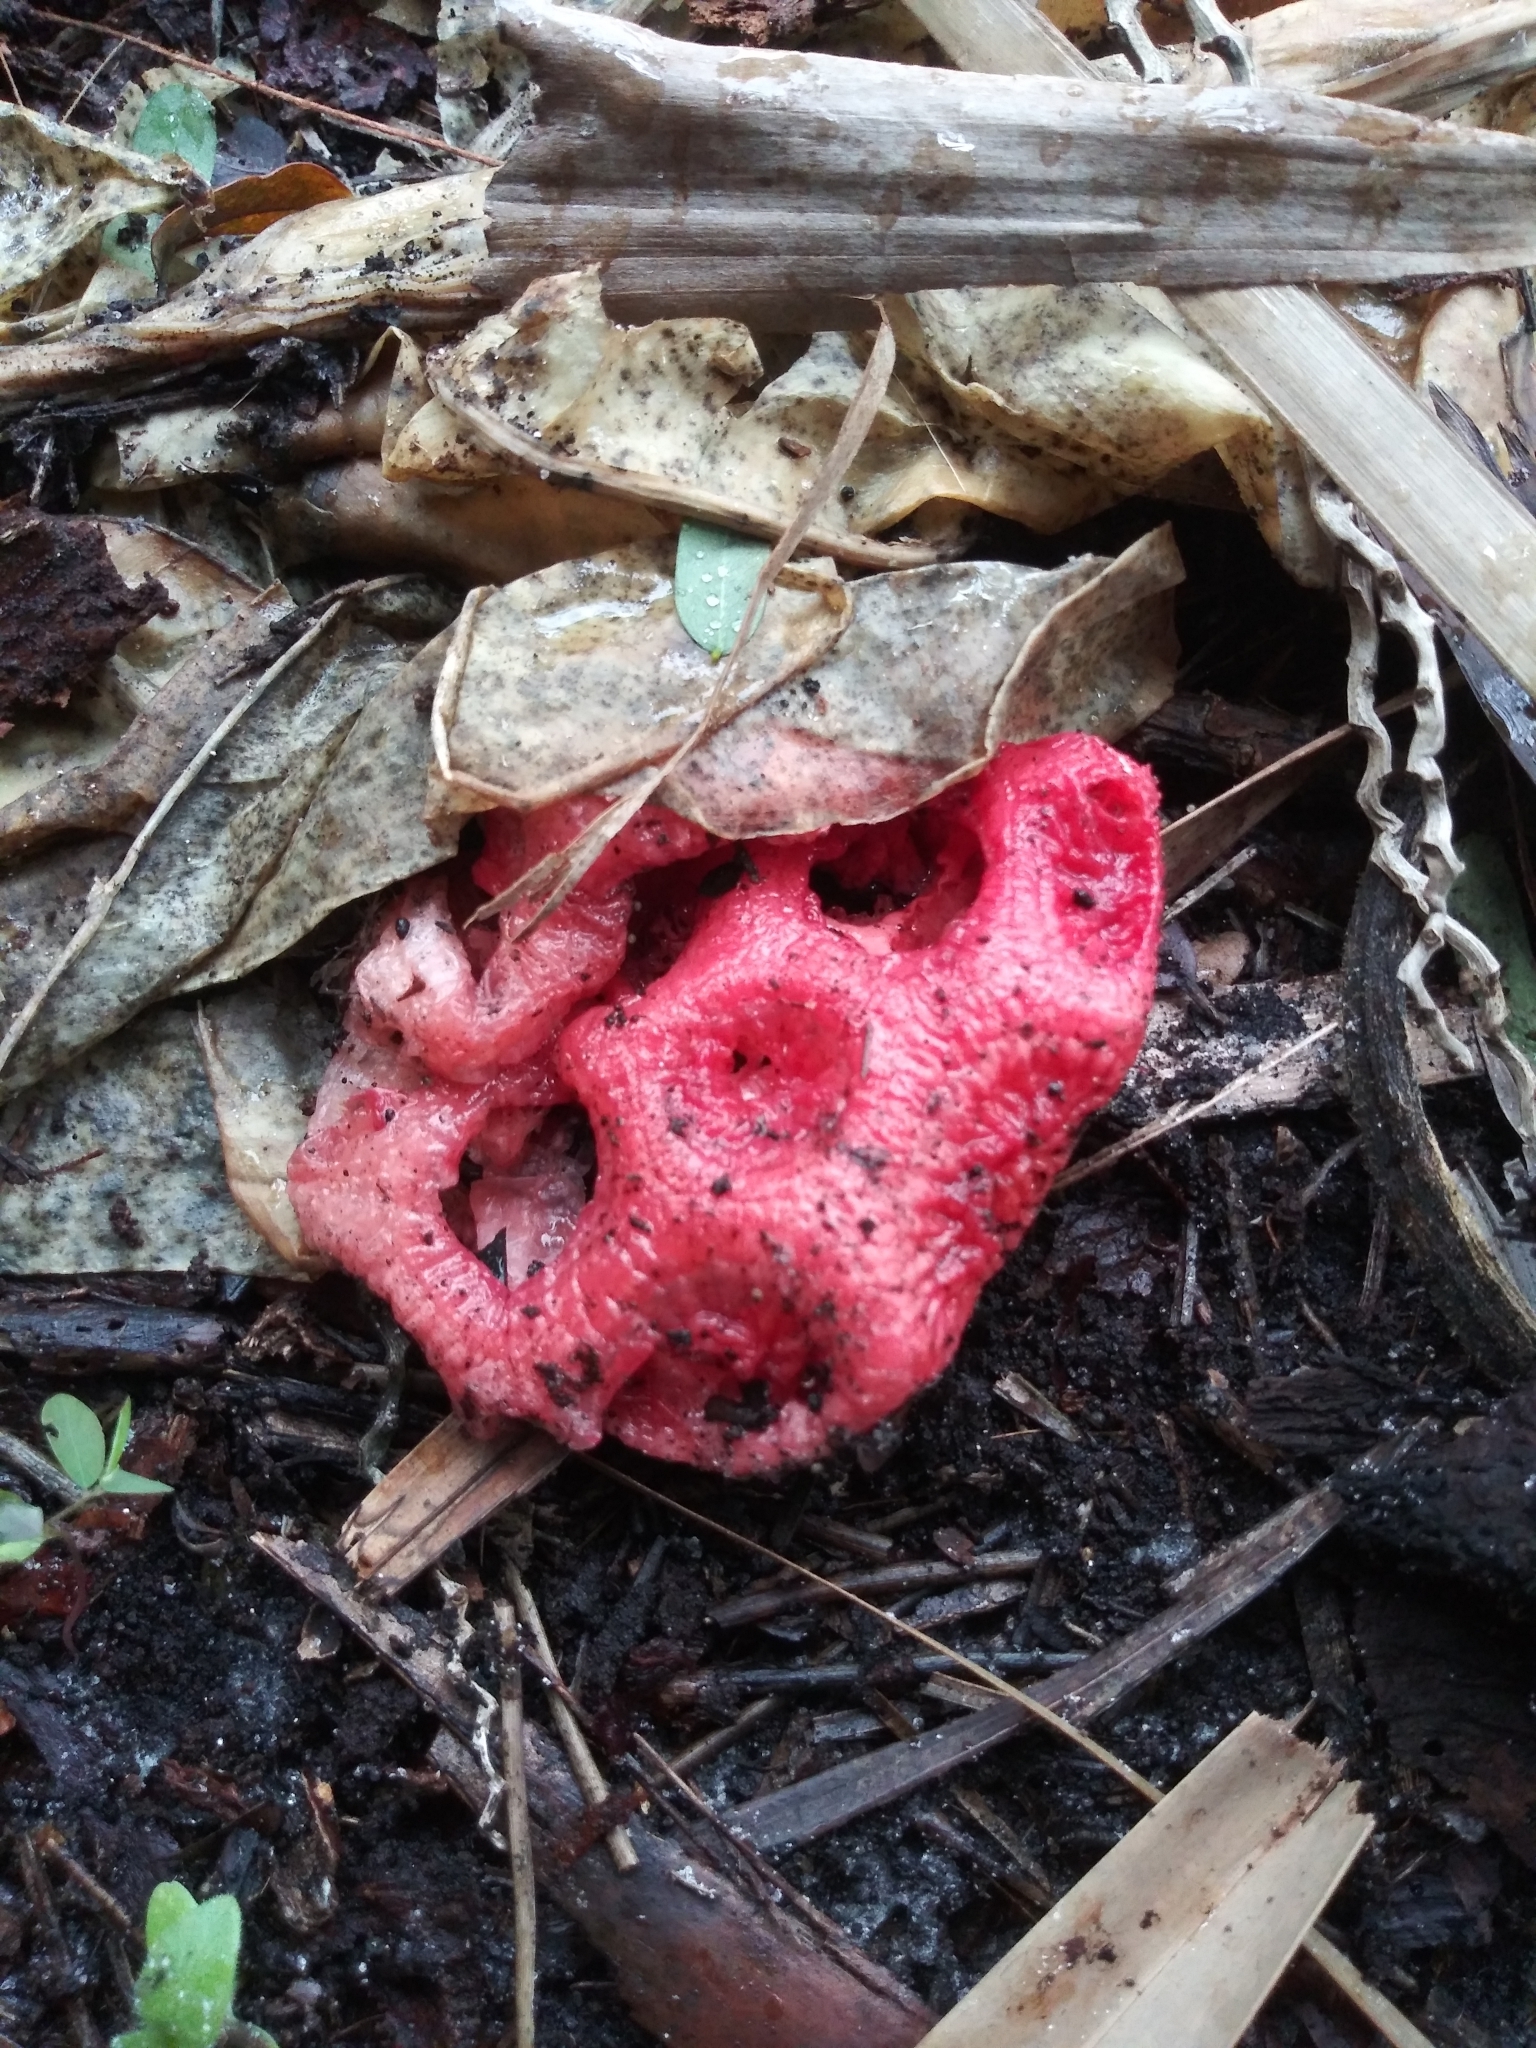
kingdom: Fungi
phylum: Basidiomycota
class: Agaricomycetes
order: Phallales
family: Phallaceae
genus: Clathrus
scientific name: Clathrus crispatus
